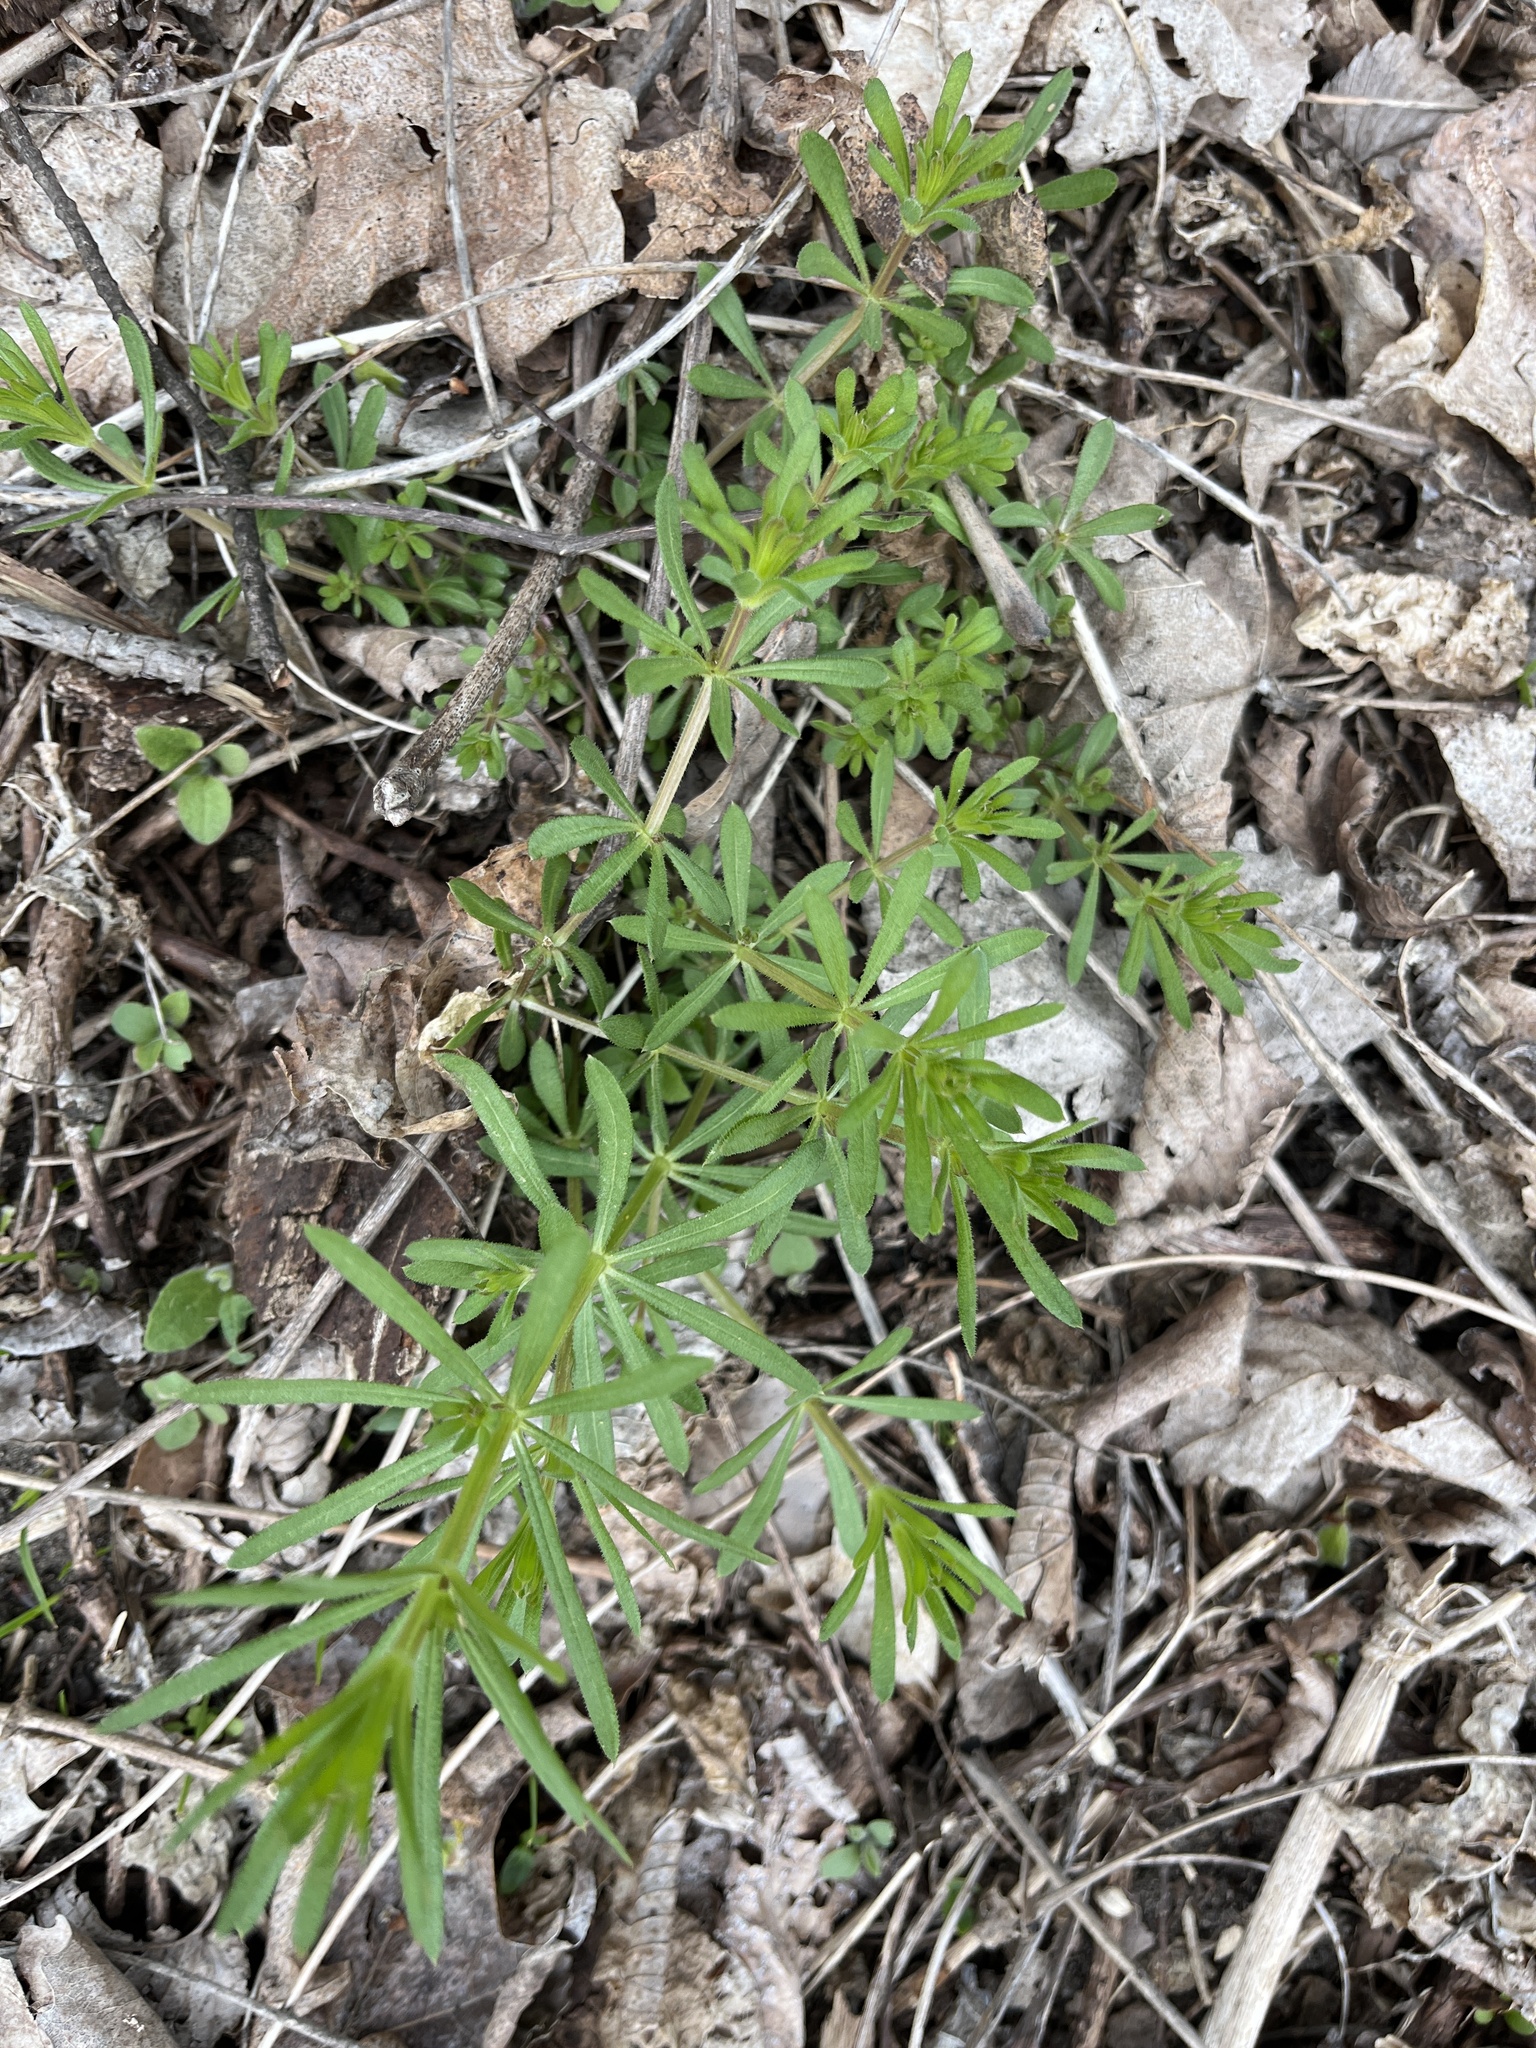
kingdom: Plantae
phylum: Tracheophyta
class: Magnoliopsida
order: Gentianales
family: Rubiaceae
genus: Galium
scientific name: Galium aparine
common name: Cleavers
